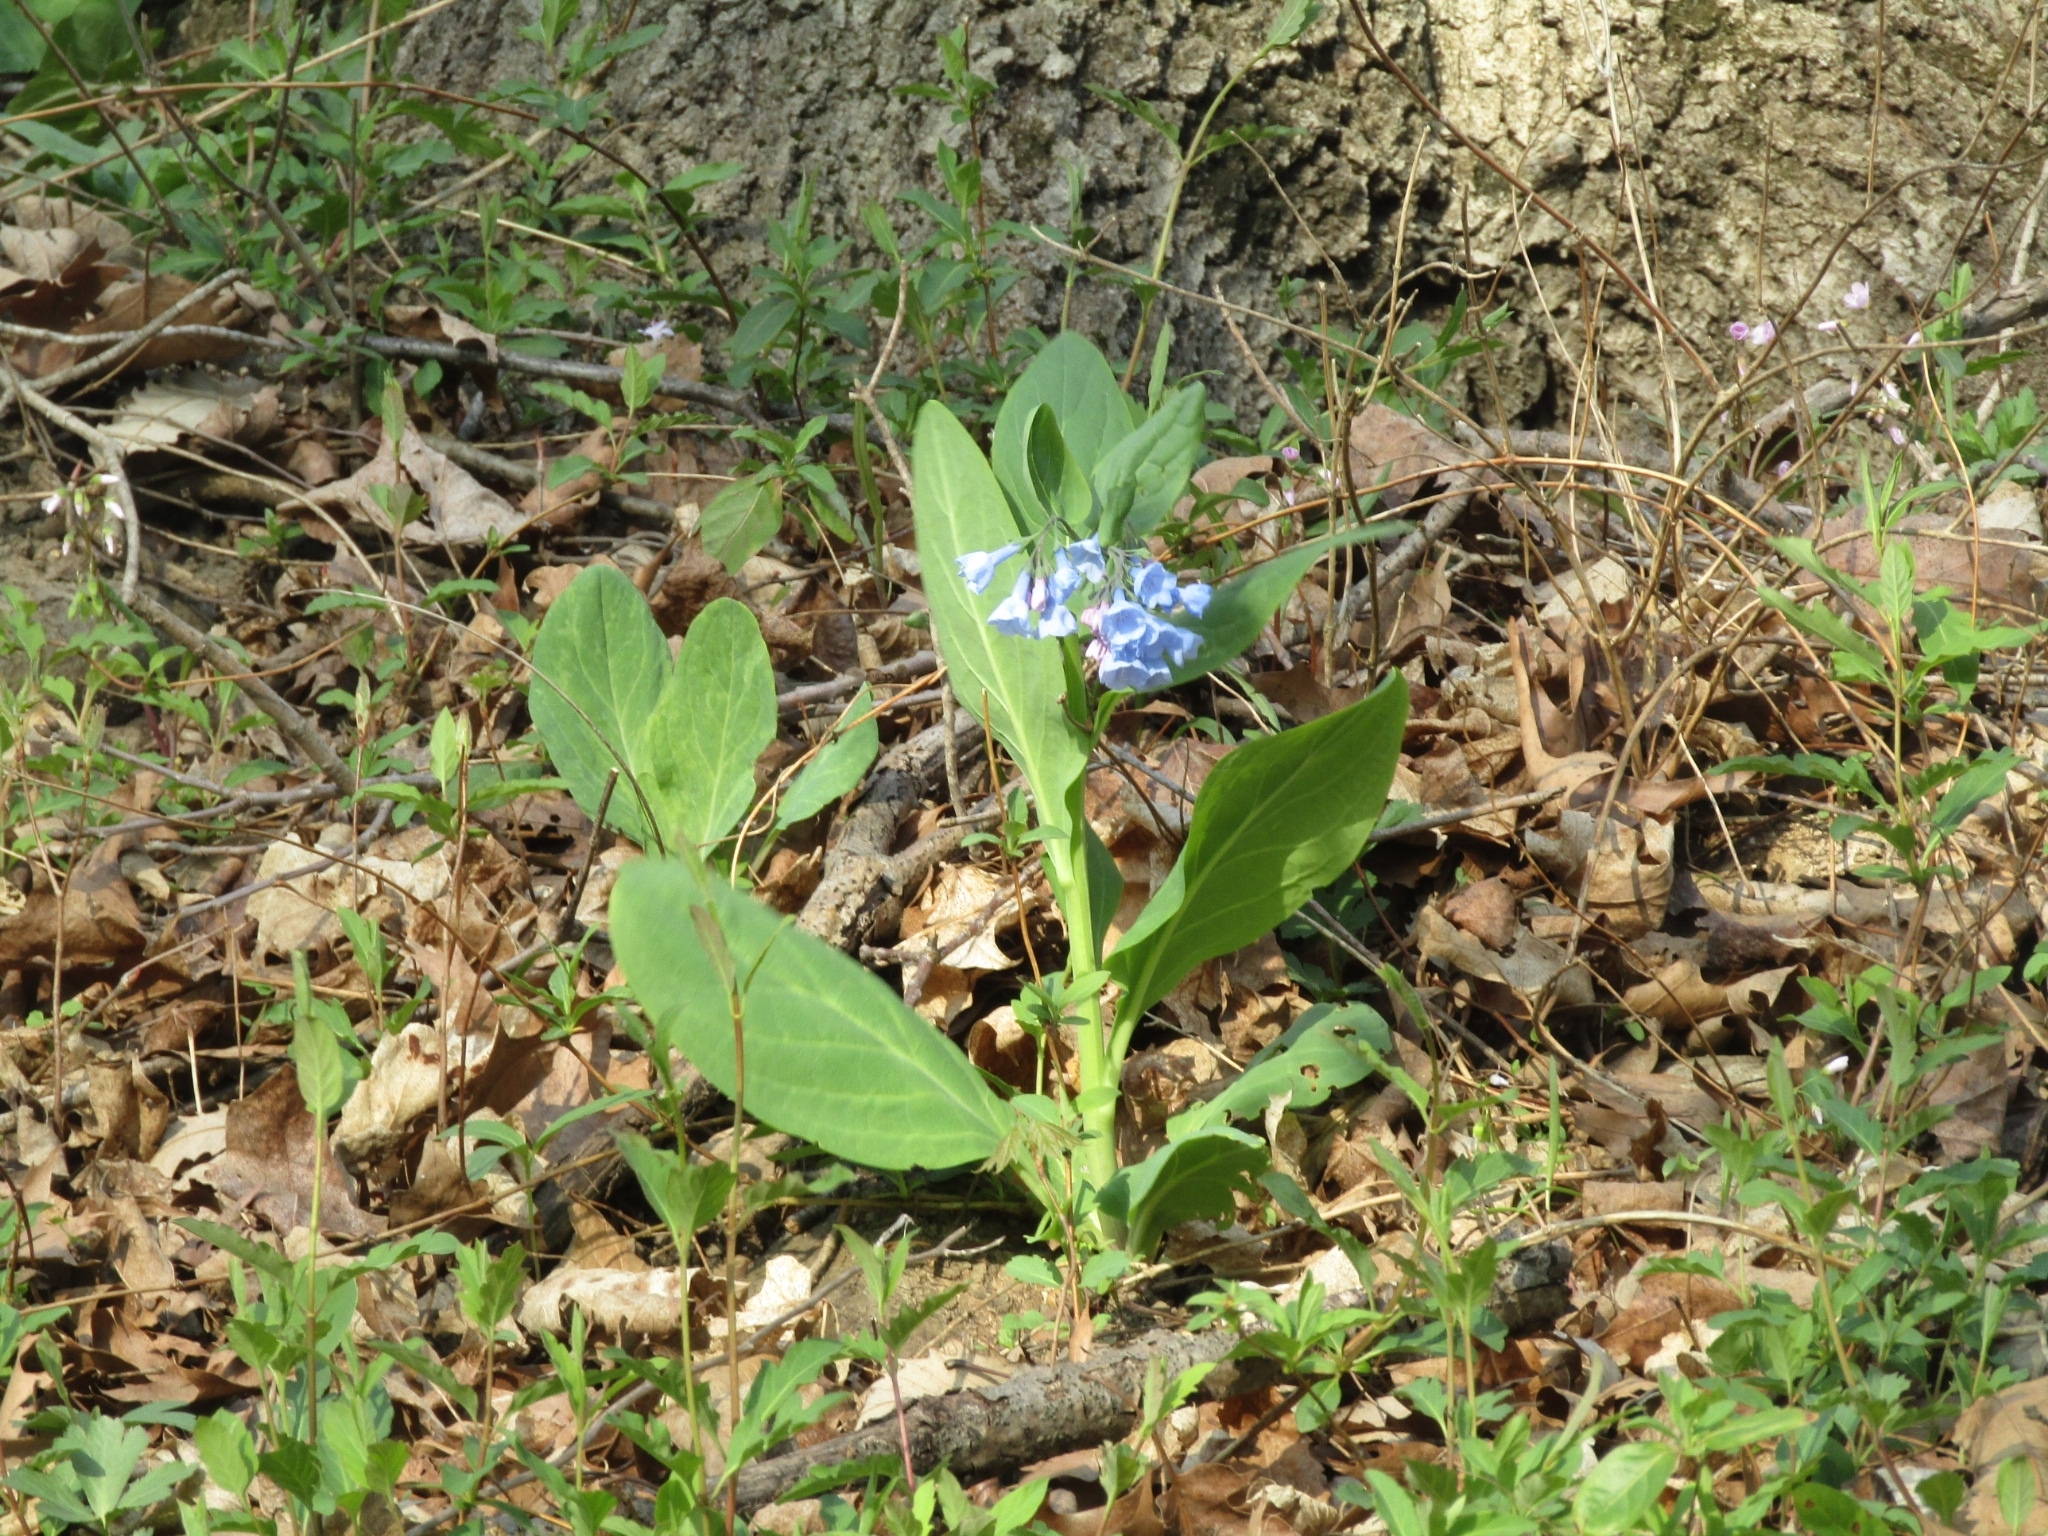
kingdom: Plantae
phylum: Tracheophyta
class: Magnoliopsida
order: Boraginales
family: Boraginaceae
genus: Mertensia
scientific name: Mertensia virginica
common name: Virginia bluebells
